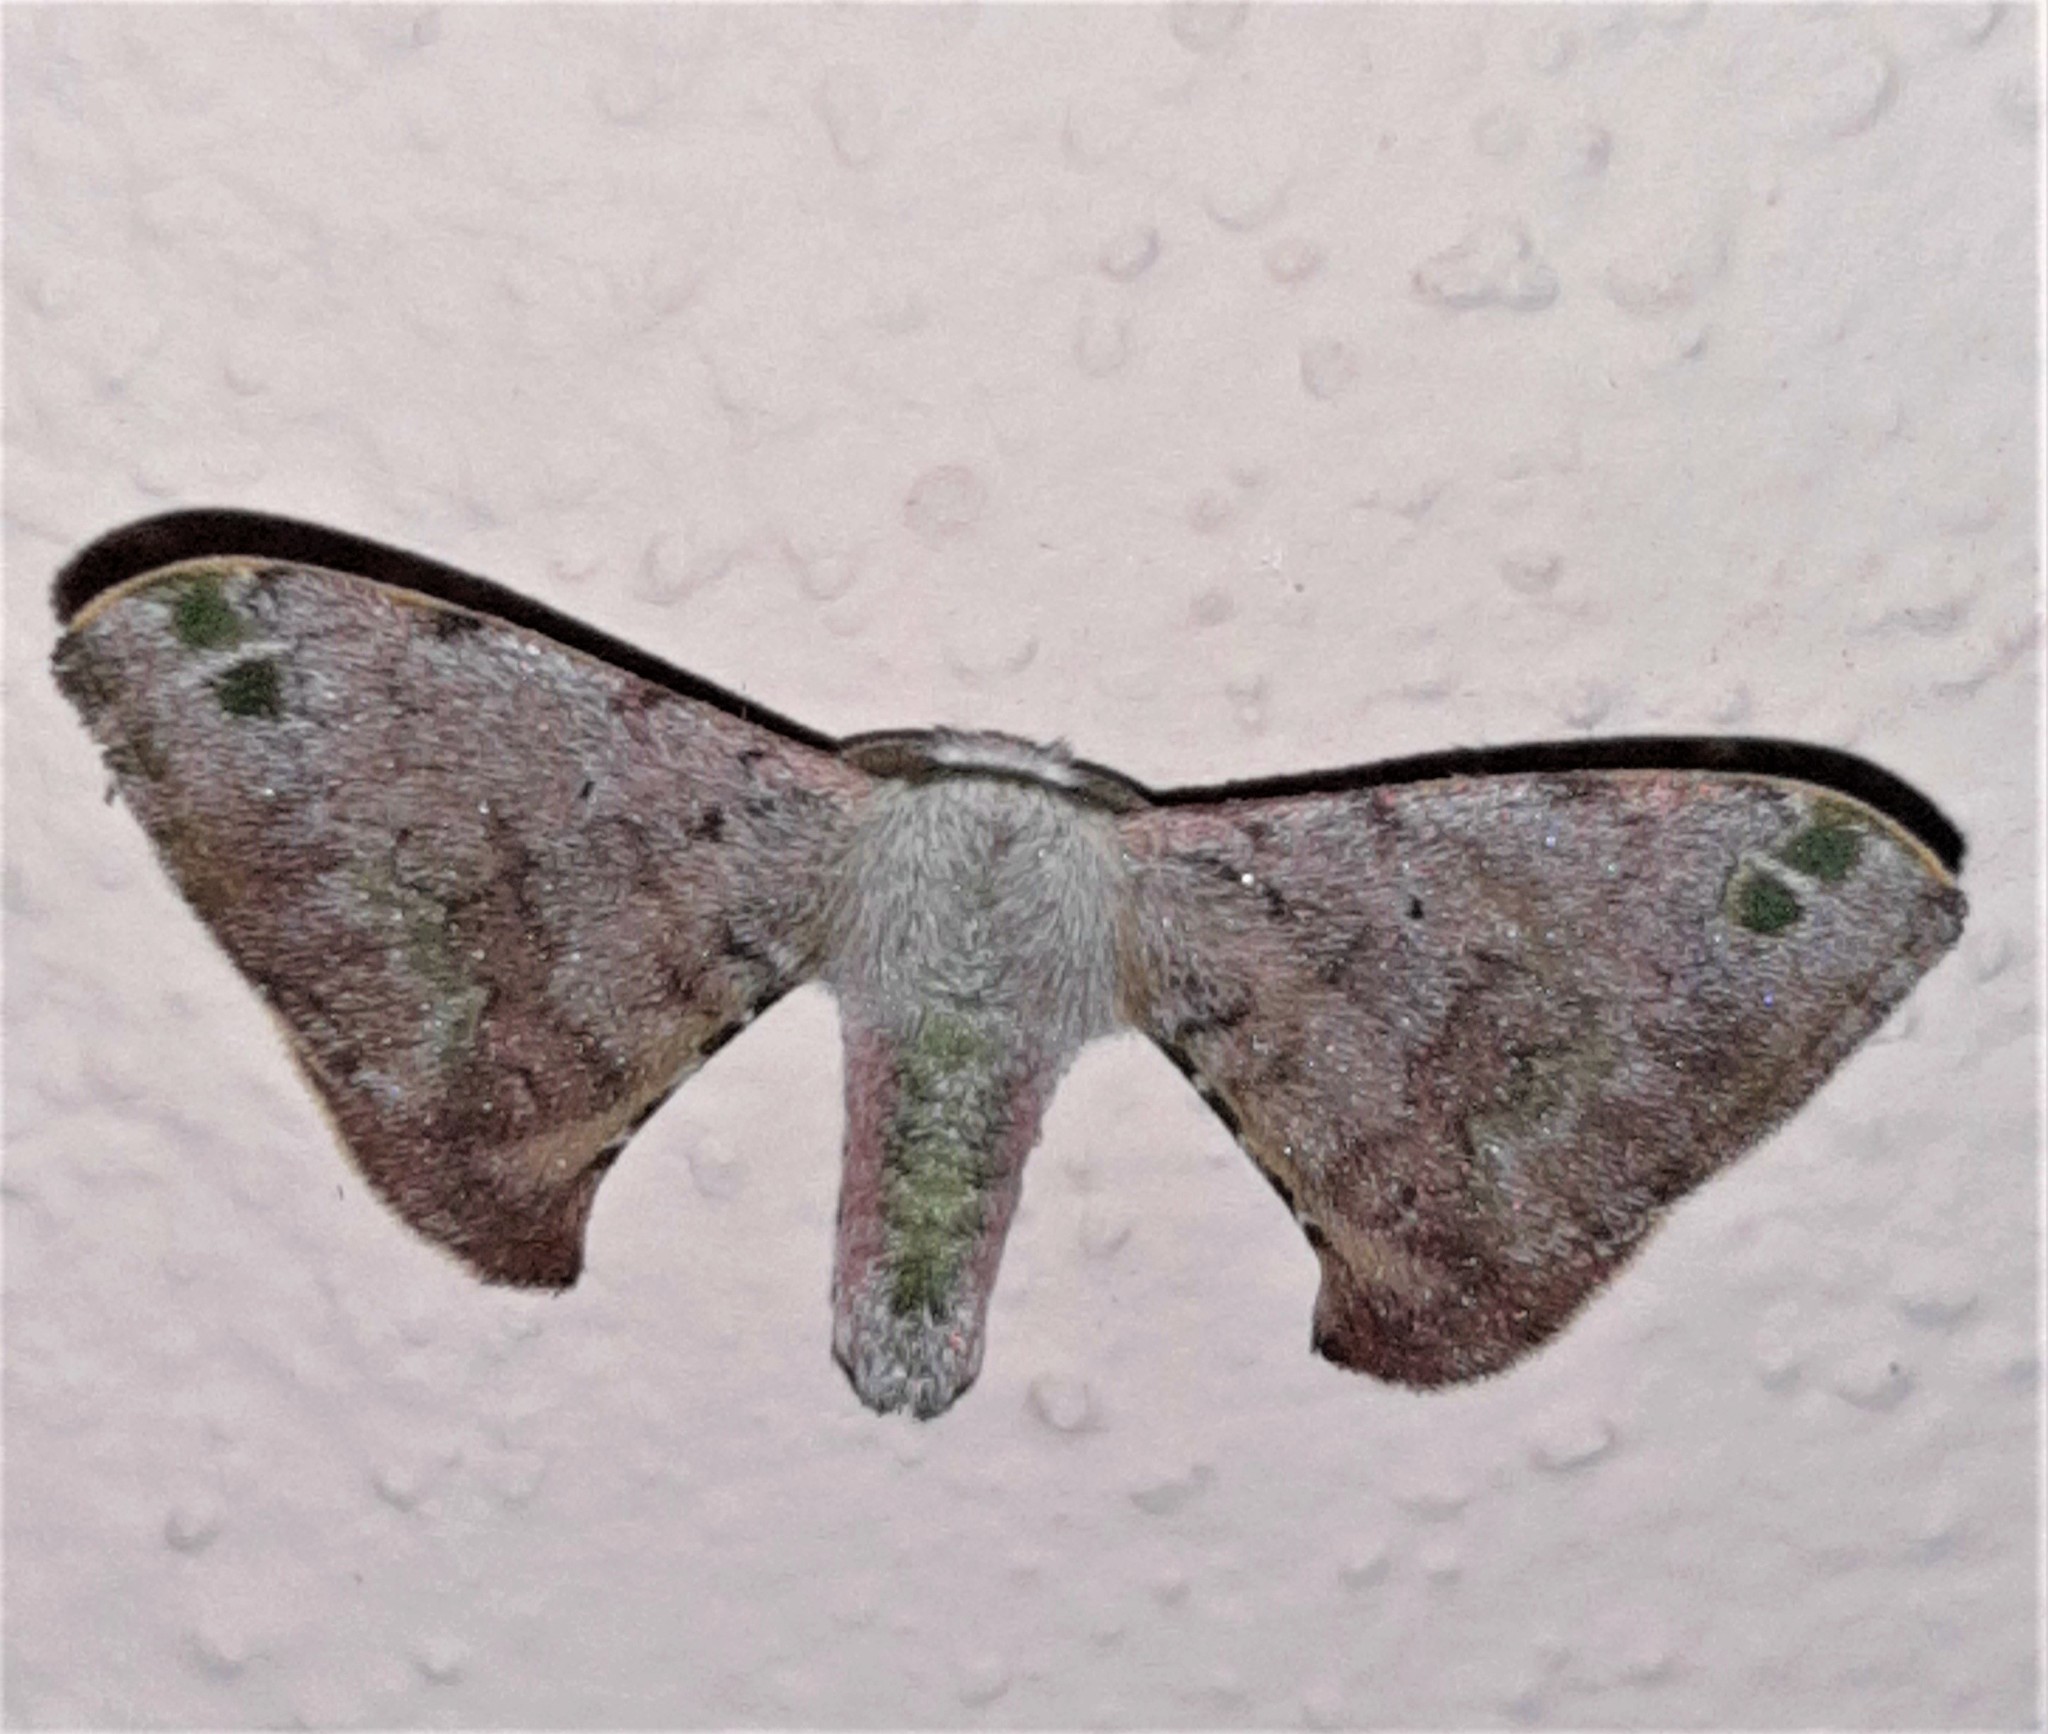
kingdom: Animalia
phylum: Arthropoda
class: Insecta
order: Lepidoptera
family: Bombycidae
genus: Anticla
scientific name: Anticla antica
